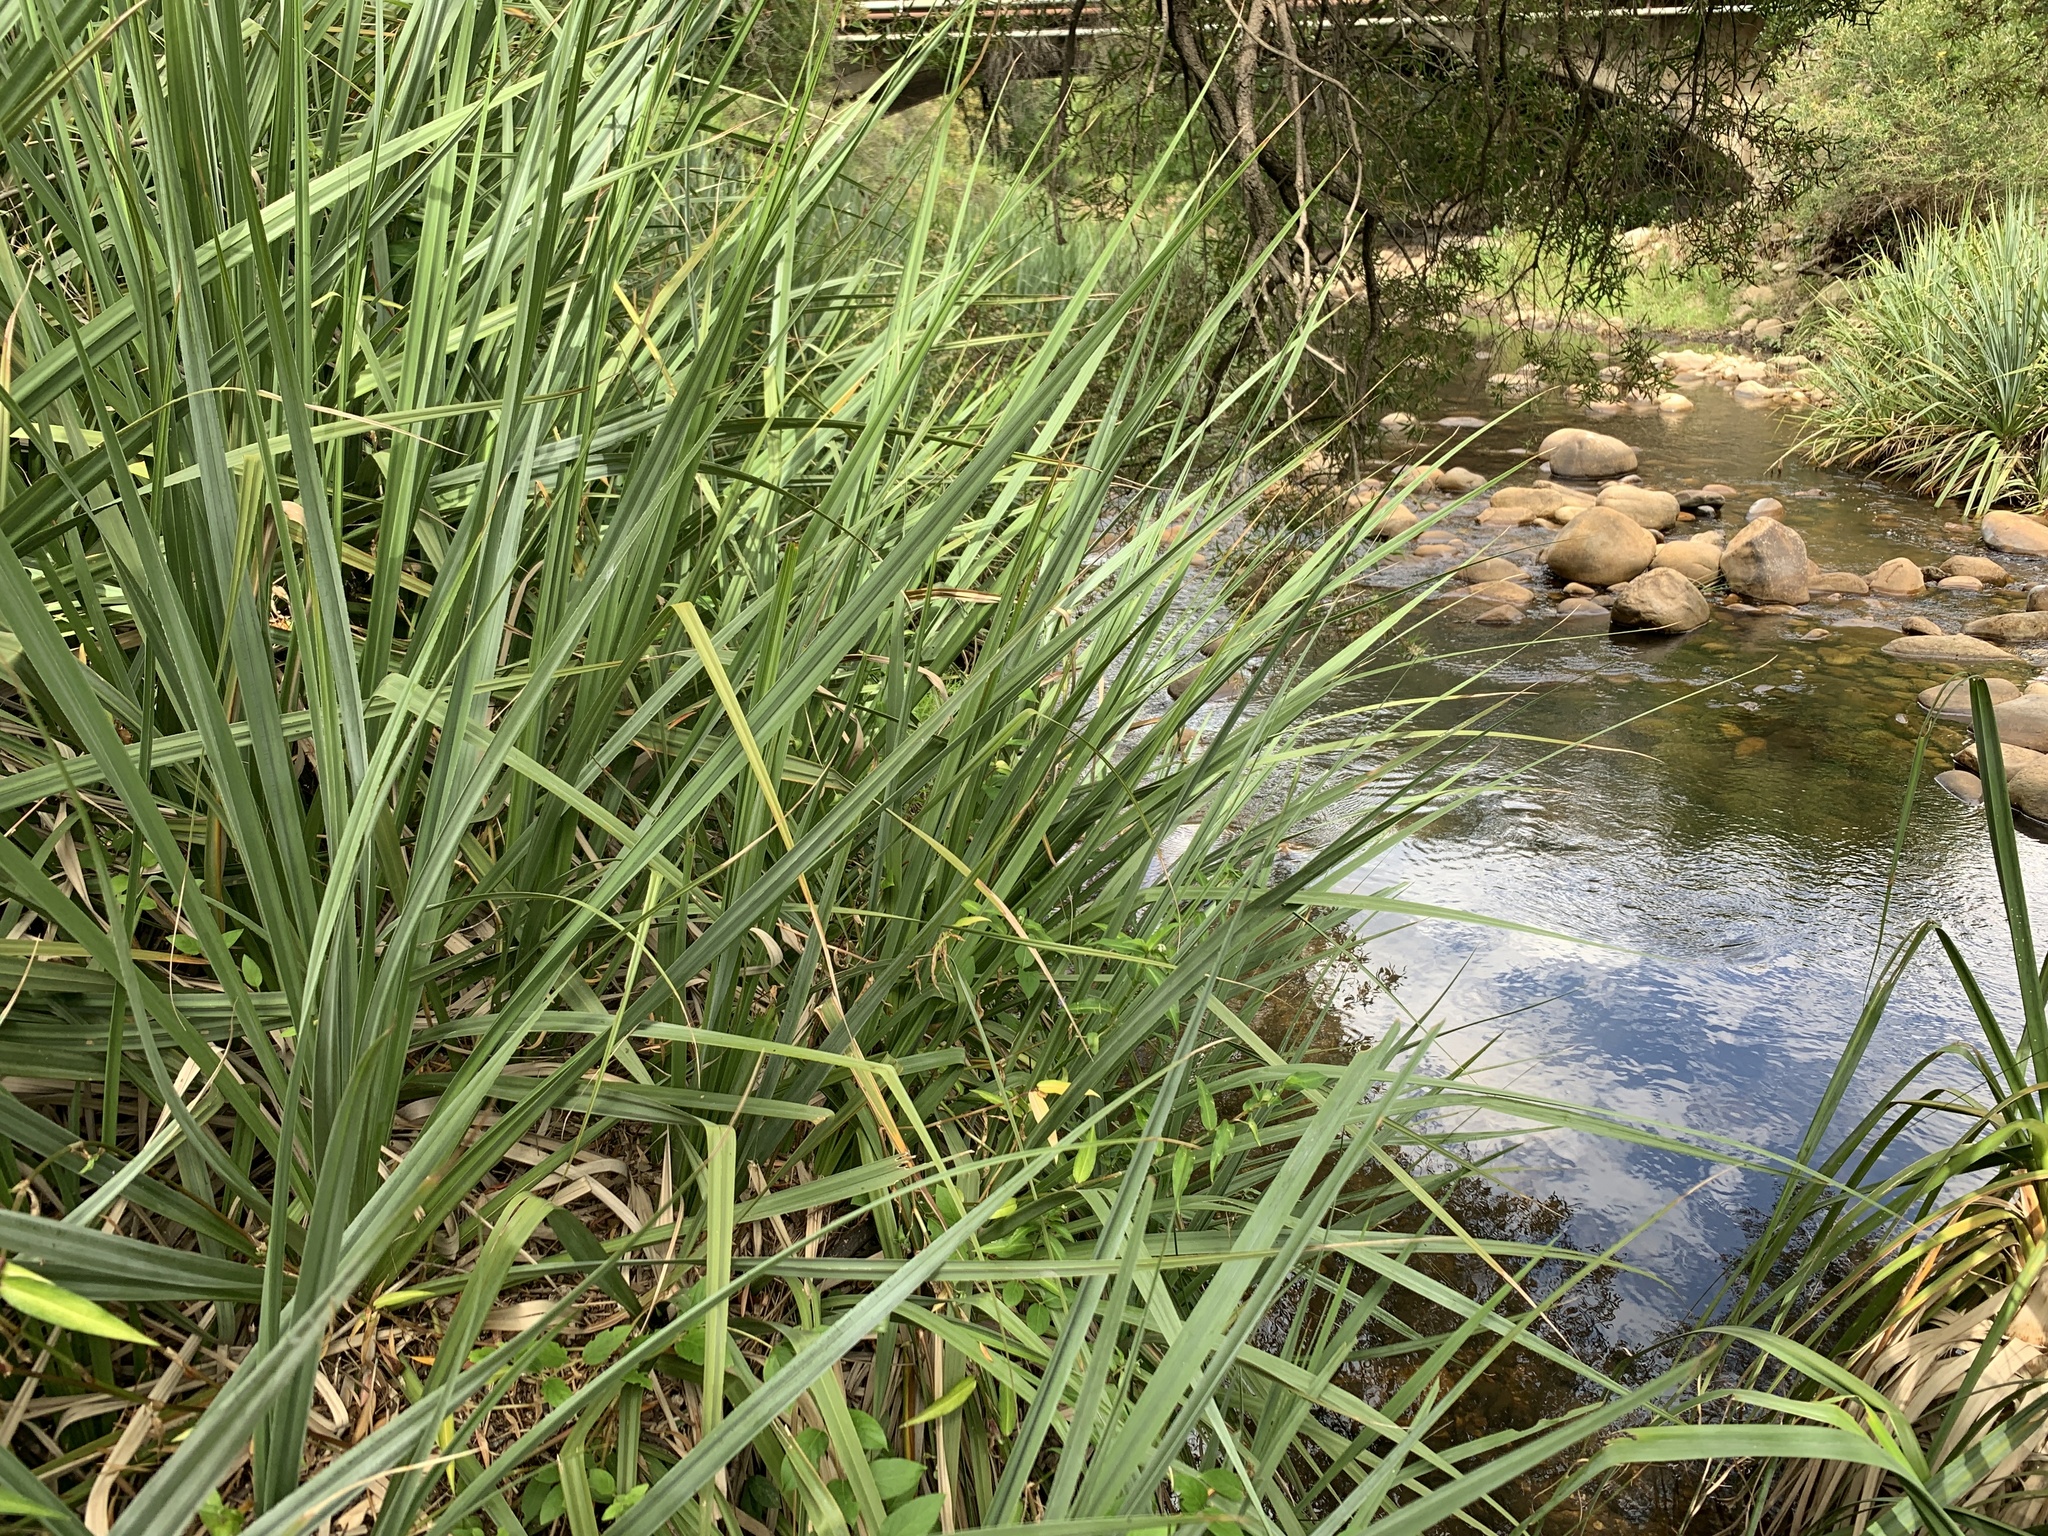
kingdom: Plantae
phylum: Tracheophyta
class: Liliopsida
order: Poales
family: Thurniaceae
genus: Prionium
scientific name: Prionium serratum
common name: Palmiet
